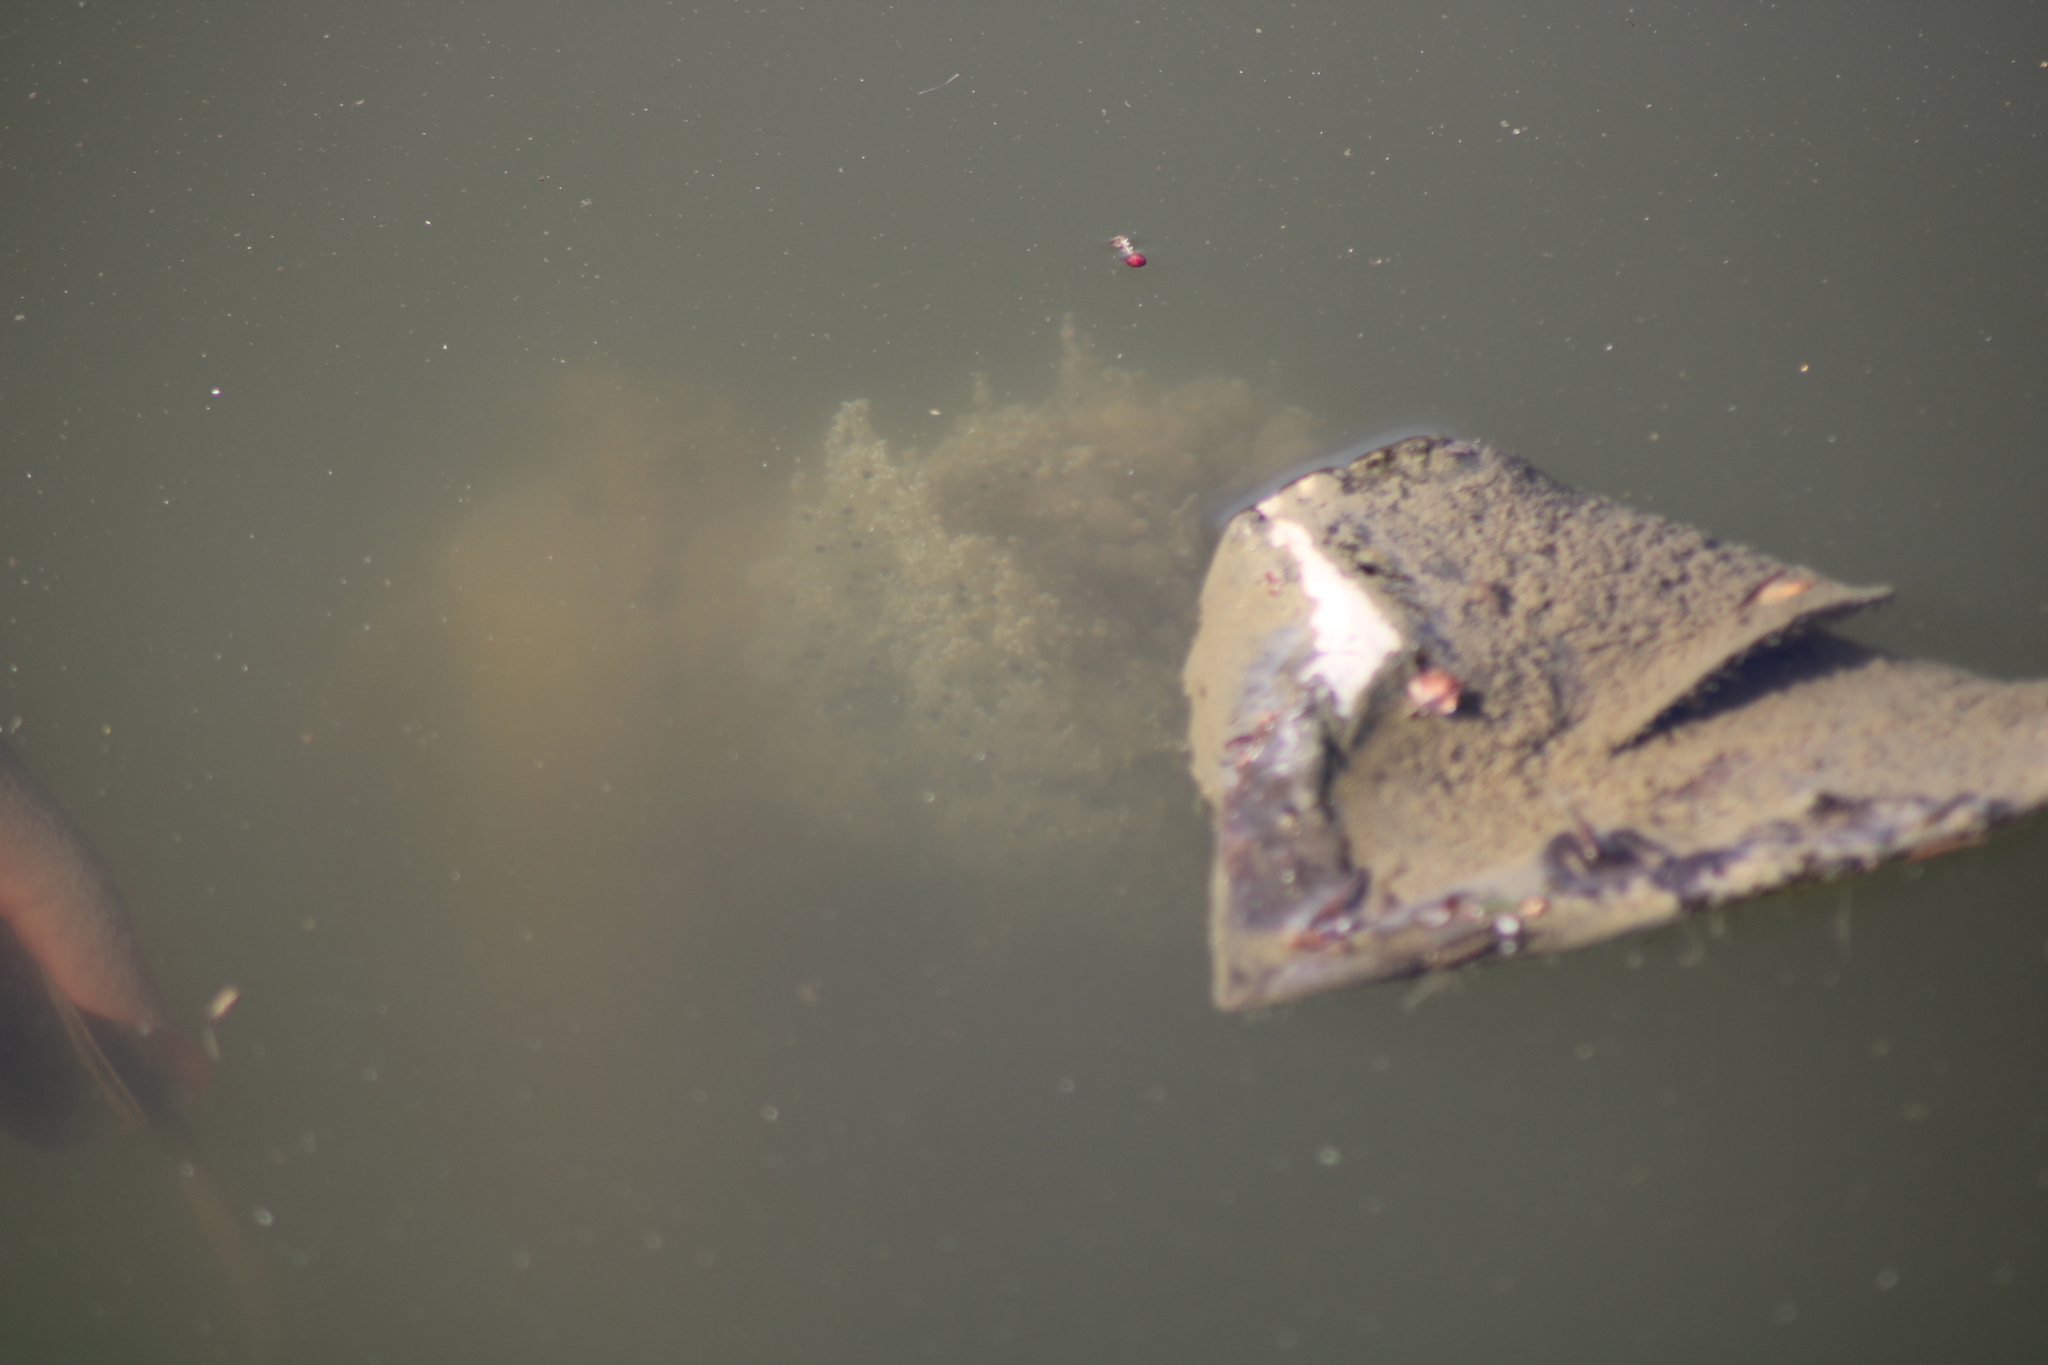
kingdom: Animalia
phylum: Chordata
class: Amphibia
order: Anura
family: Ranidae
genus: Rana
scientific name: Rana dalmatina
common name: Agile frog
